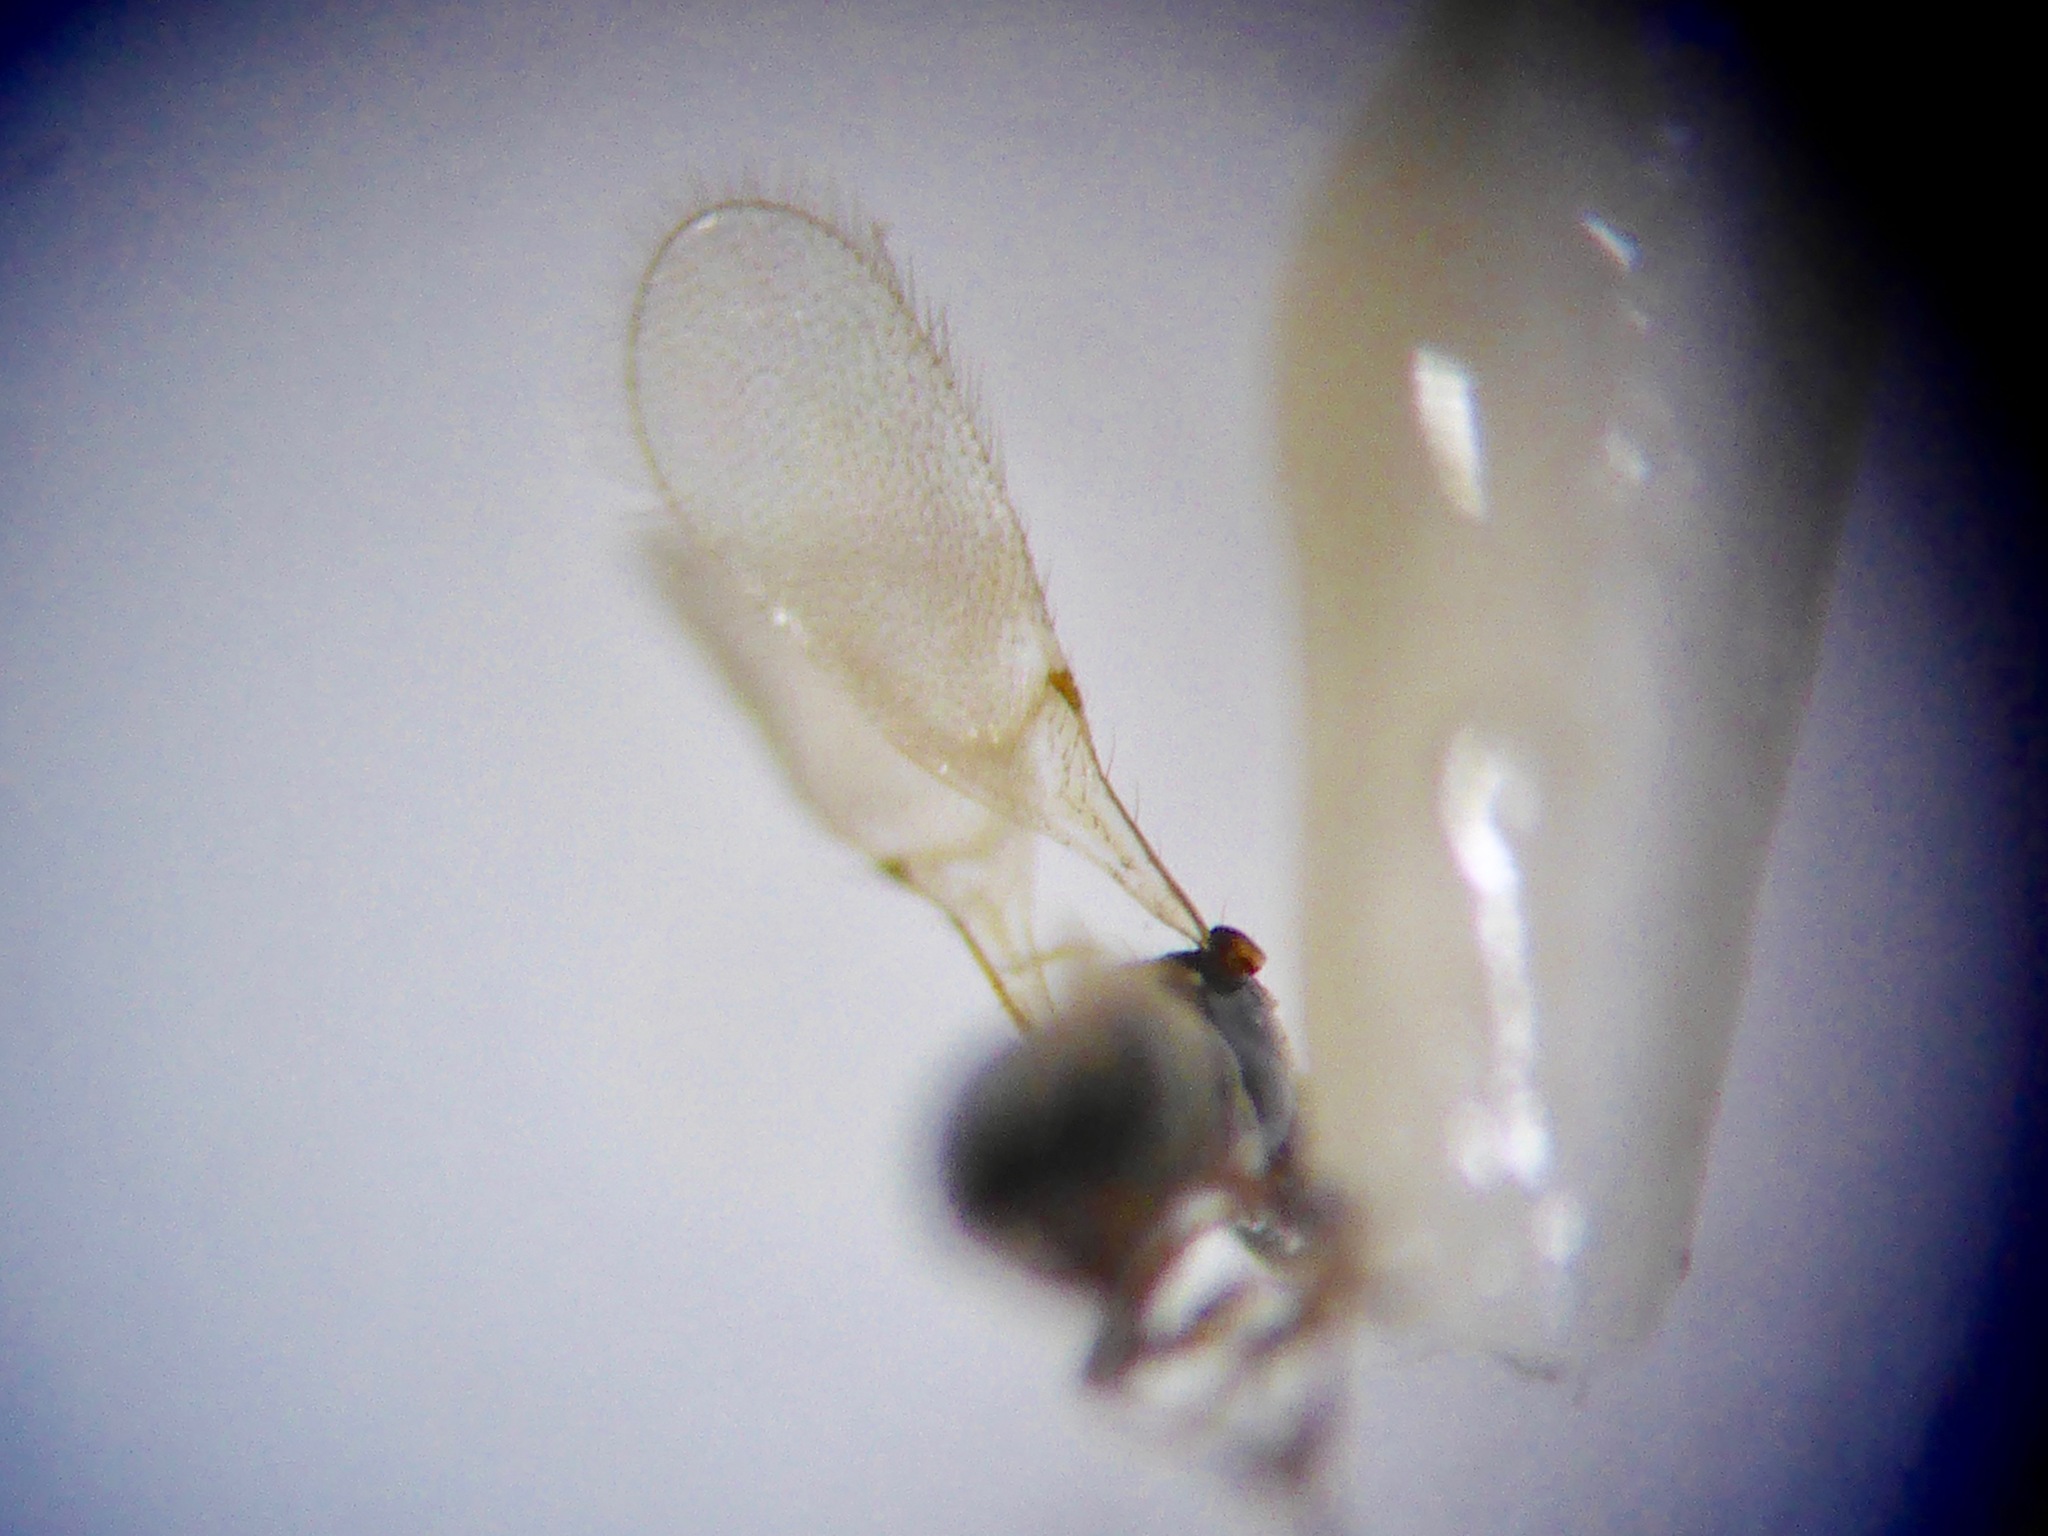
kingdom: Animalia
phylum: Arthropoda
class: Insecta
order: Hymenoptera
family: Diapriidae
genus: Trichopria
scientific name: Trichopria
